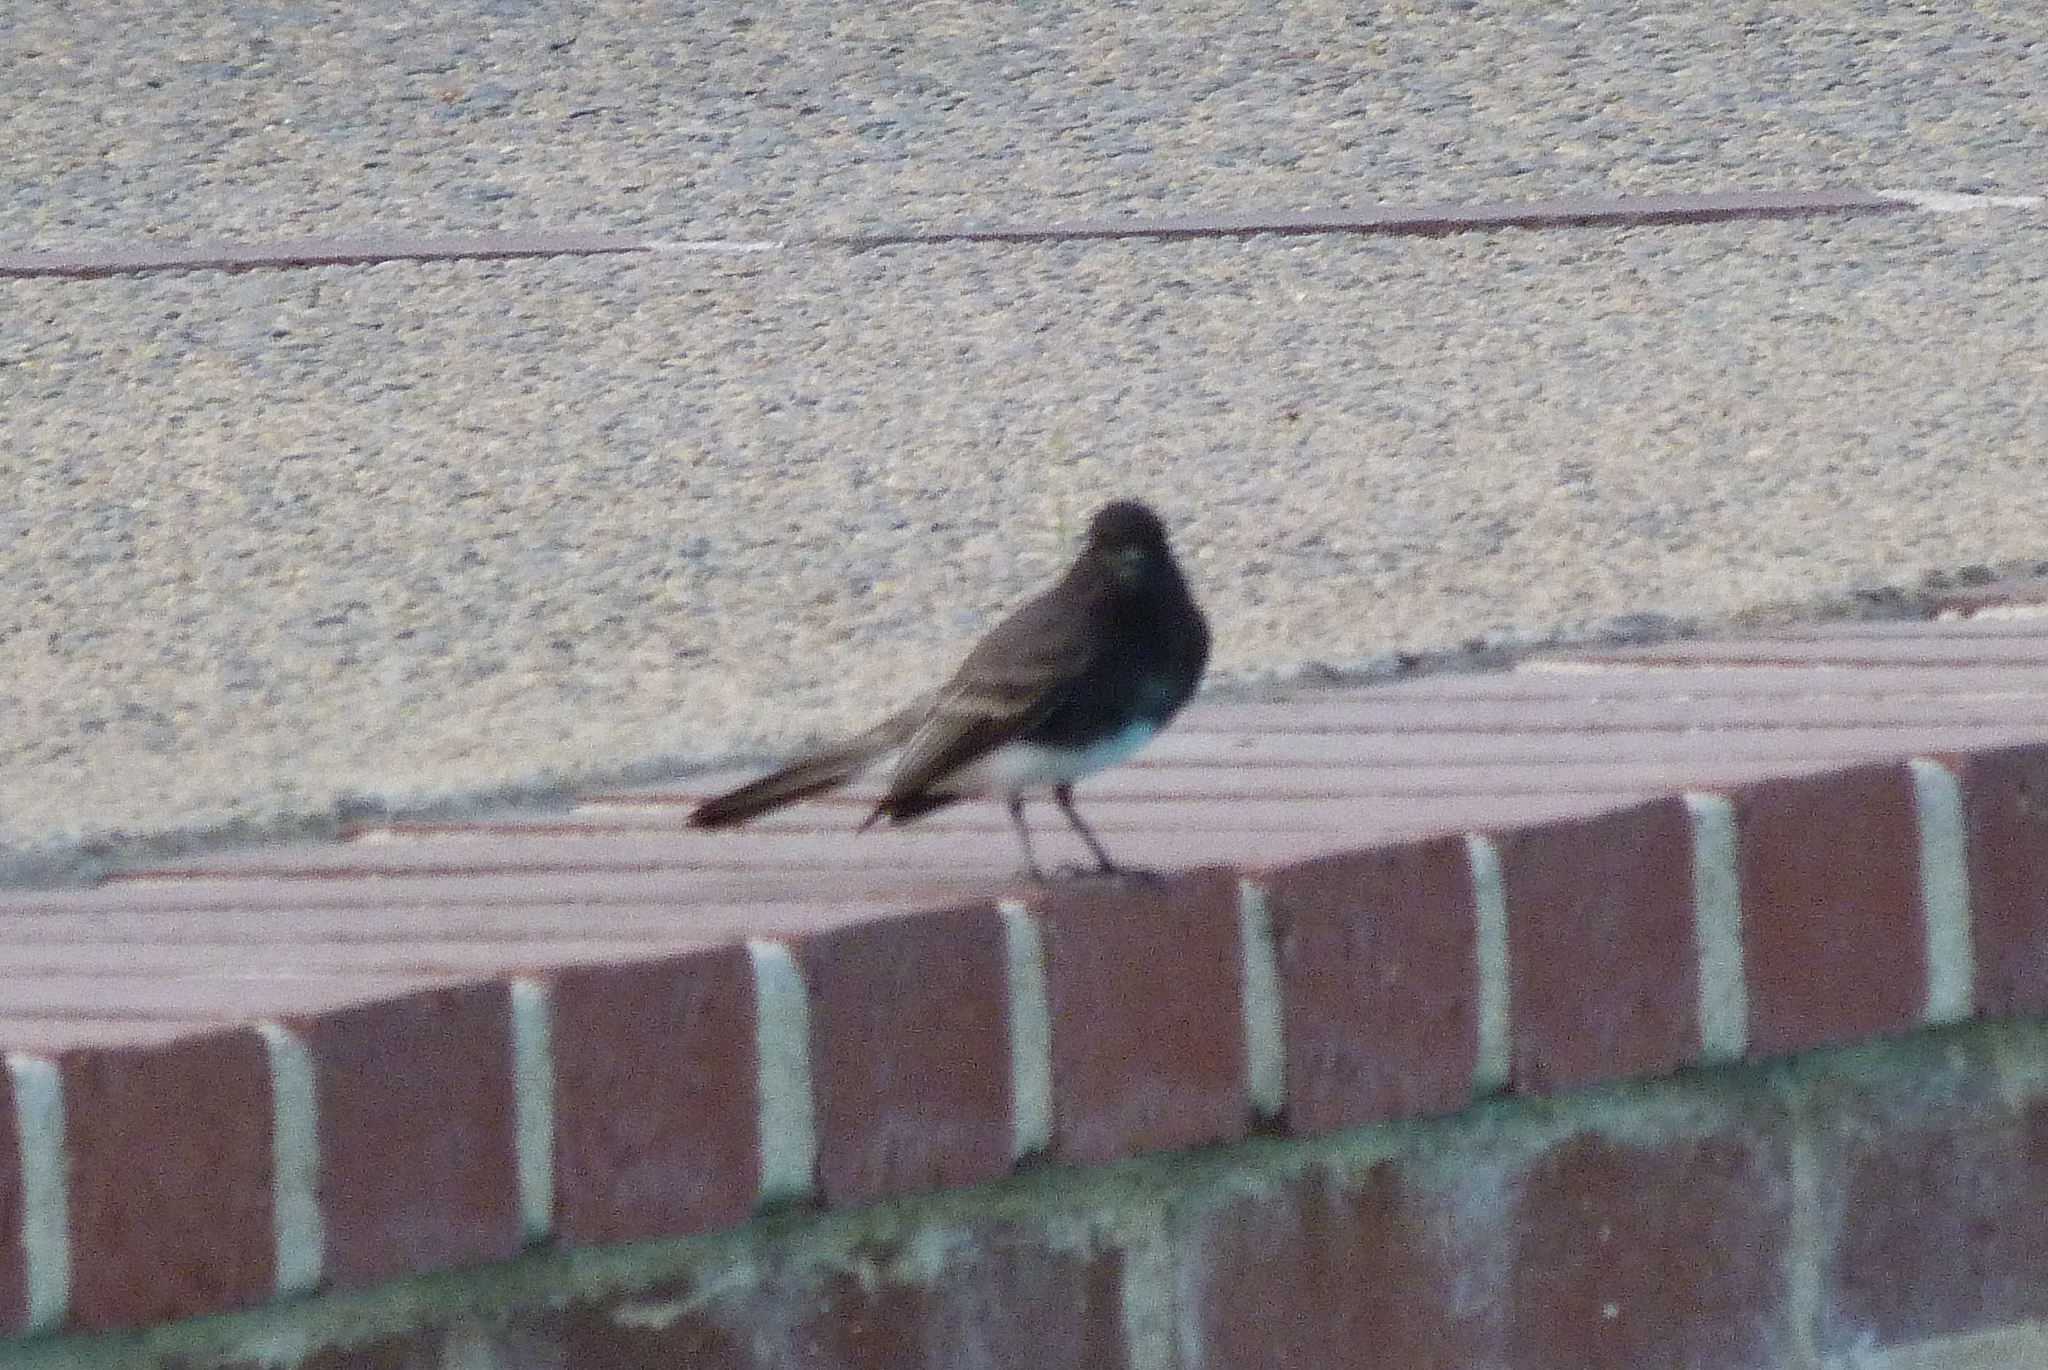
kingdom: Animalia
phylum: Chordata
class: Aves
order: Passeriformes
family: Tyrannidae
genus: Sayornis
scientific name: Sayornis nigricans
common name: Black phoebe
